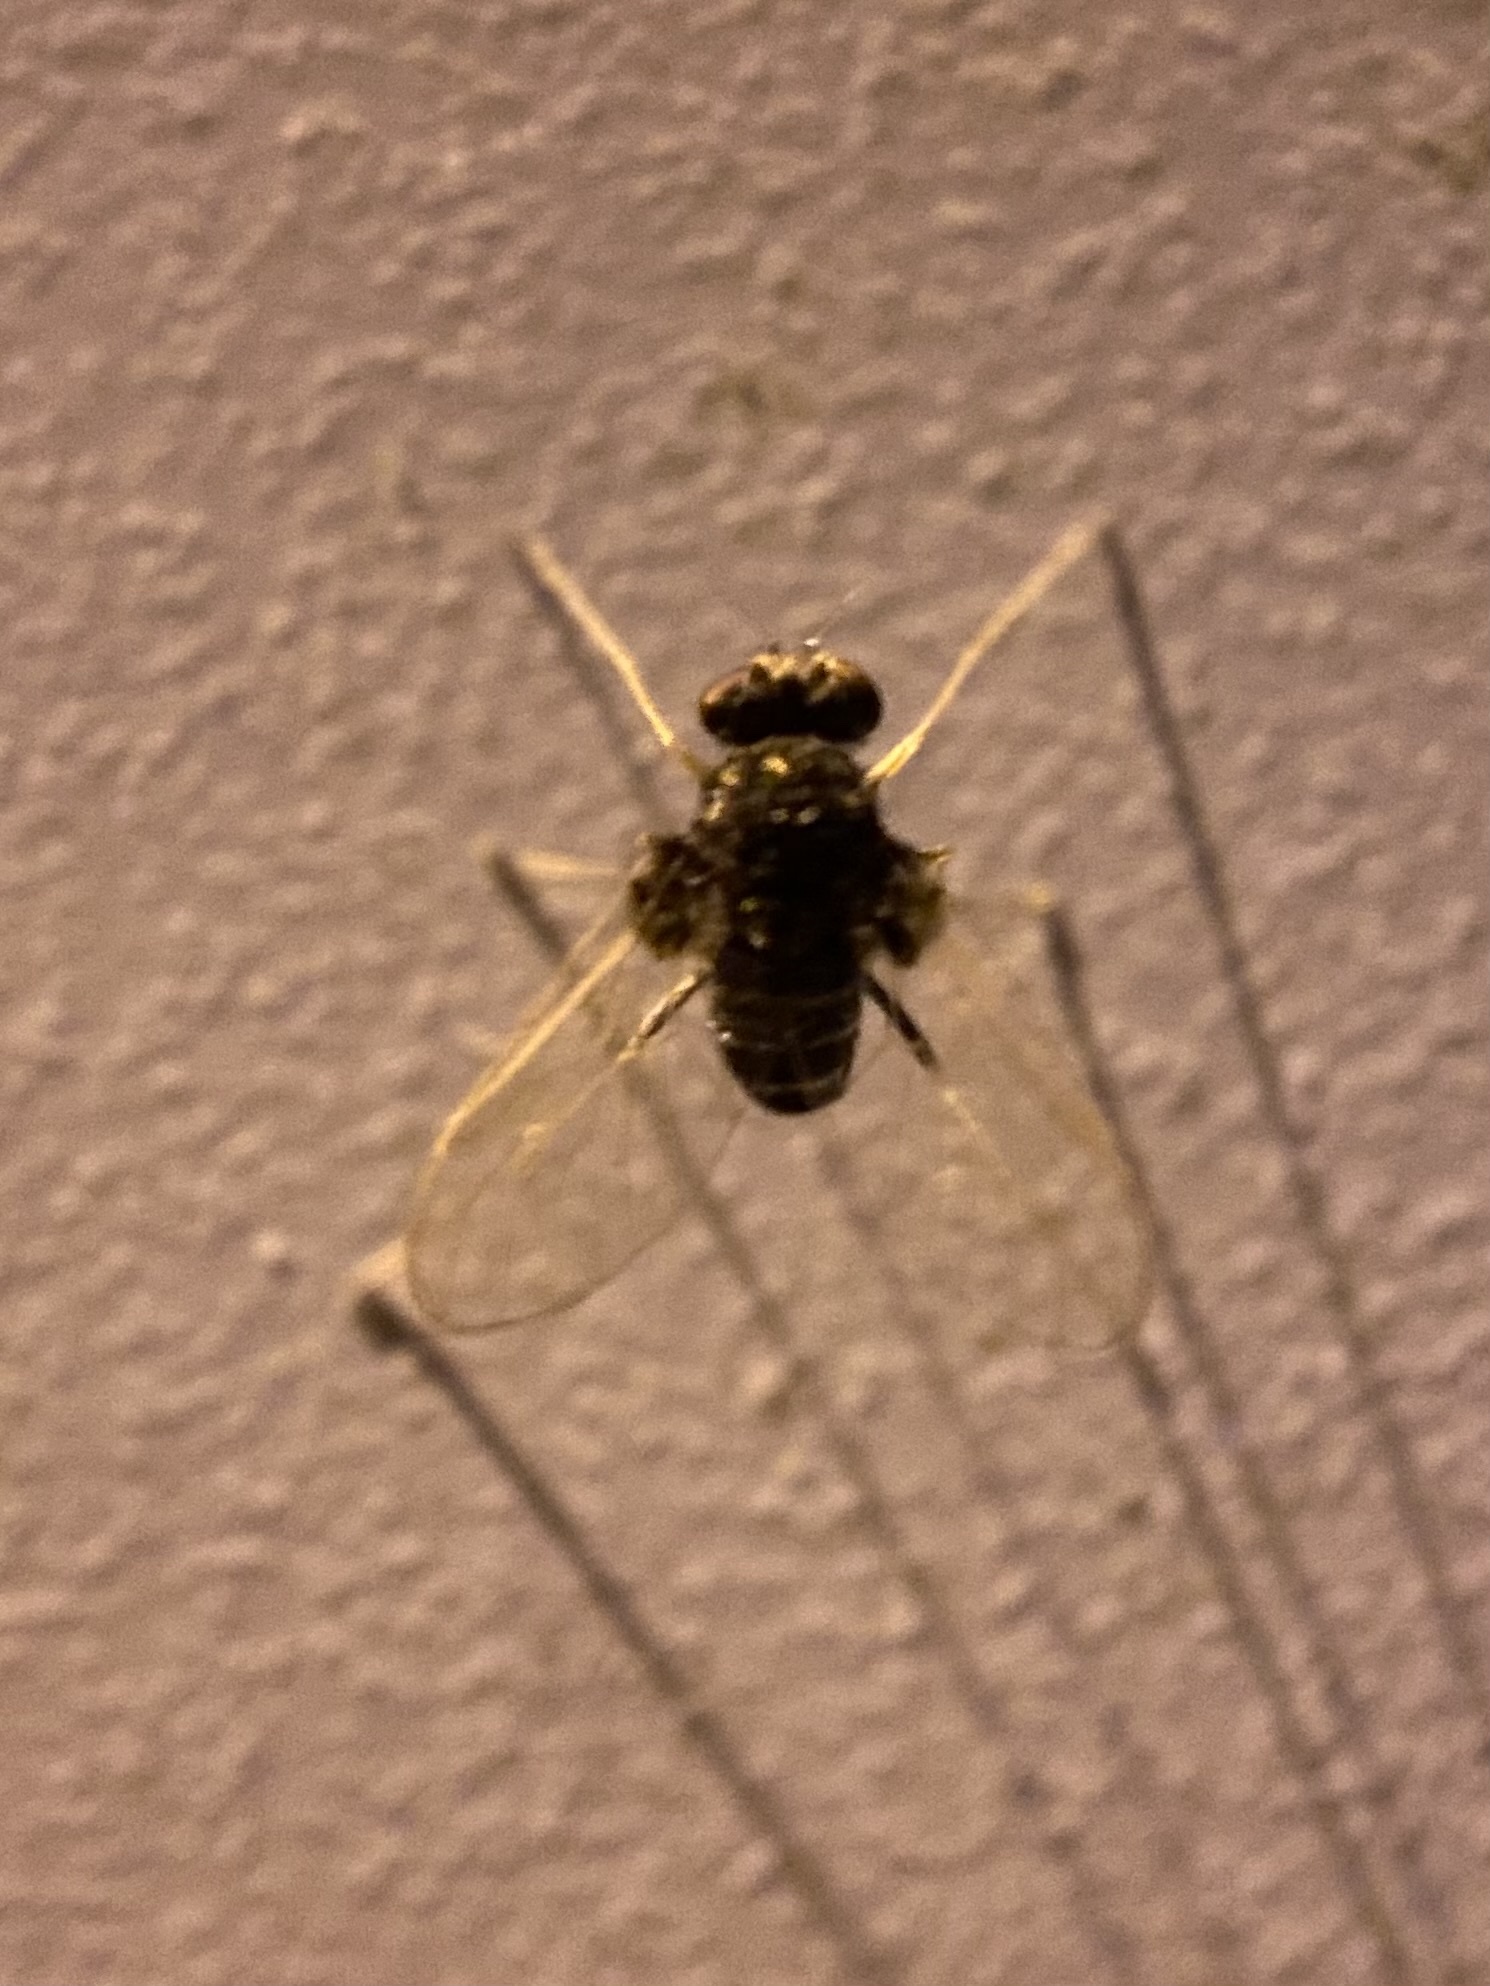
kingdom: Animalia
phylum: Arthropoda
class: Insecta
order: Diptera
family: Rhagionidae
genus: Chrysopilus
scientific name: Chrysopilus basilaris
